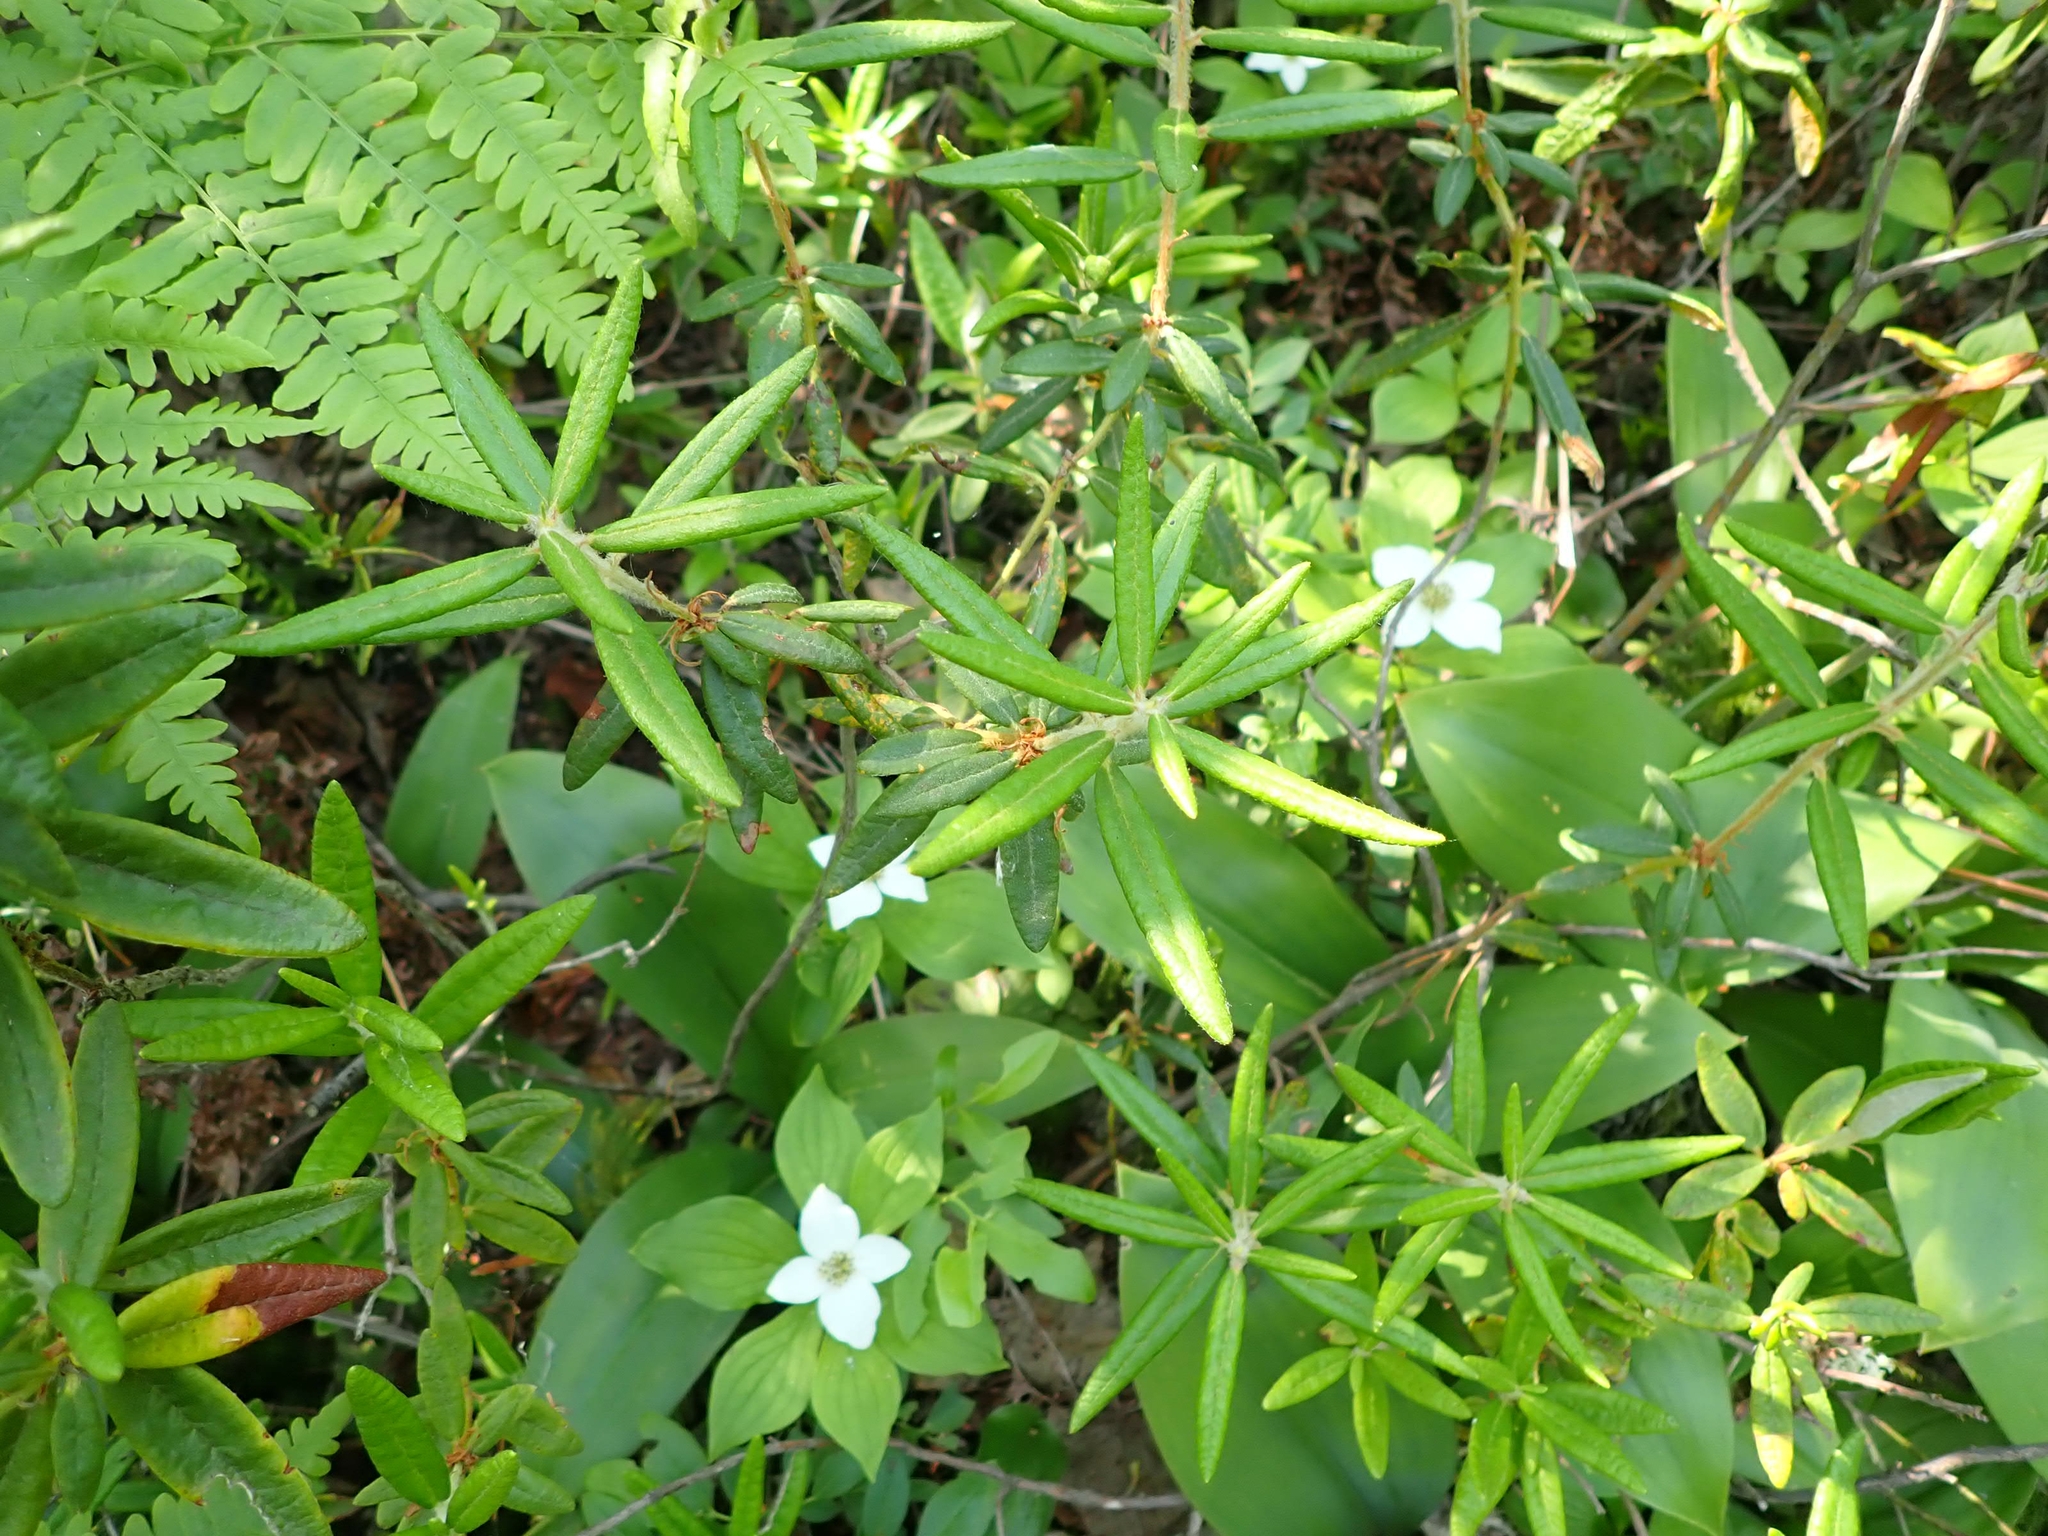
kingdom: Plantae
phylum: Tracheophyta
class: Magnoliopsida
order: Ericales
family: Ericaceae
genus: Rhododendron
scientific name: Rhododendron groenlandicum
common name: Bog labrador tea
